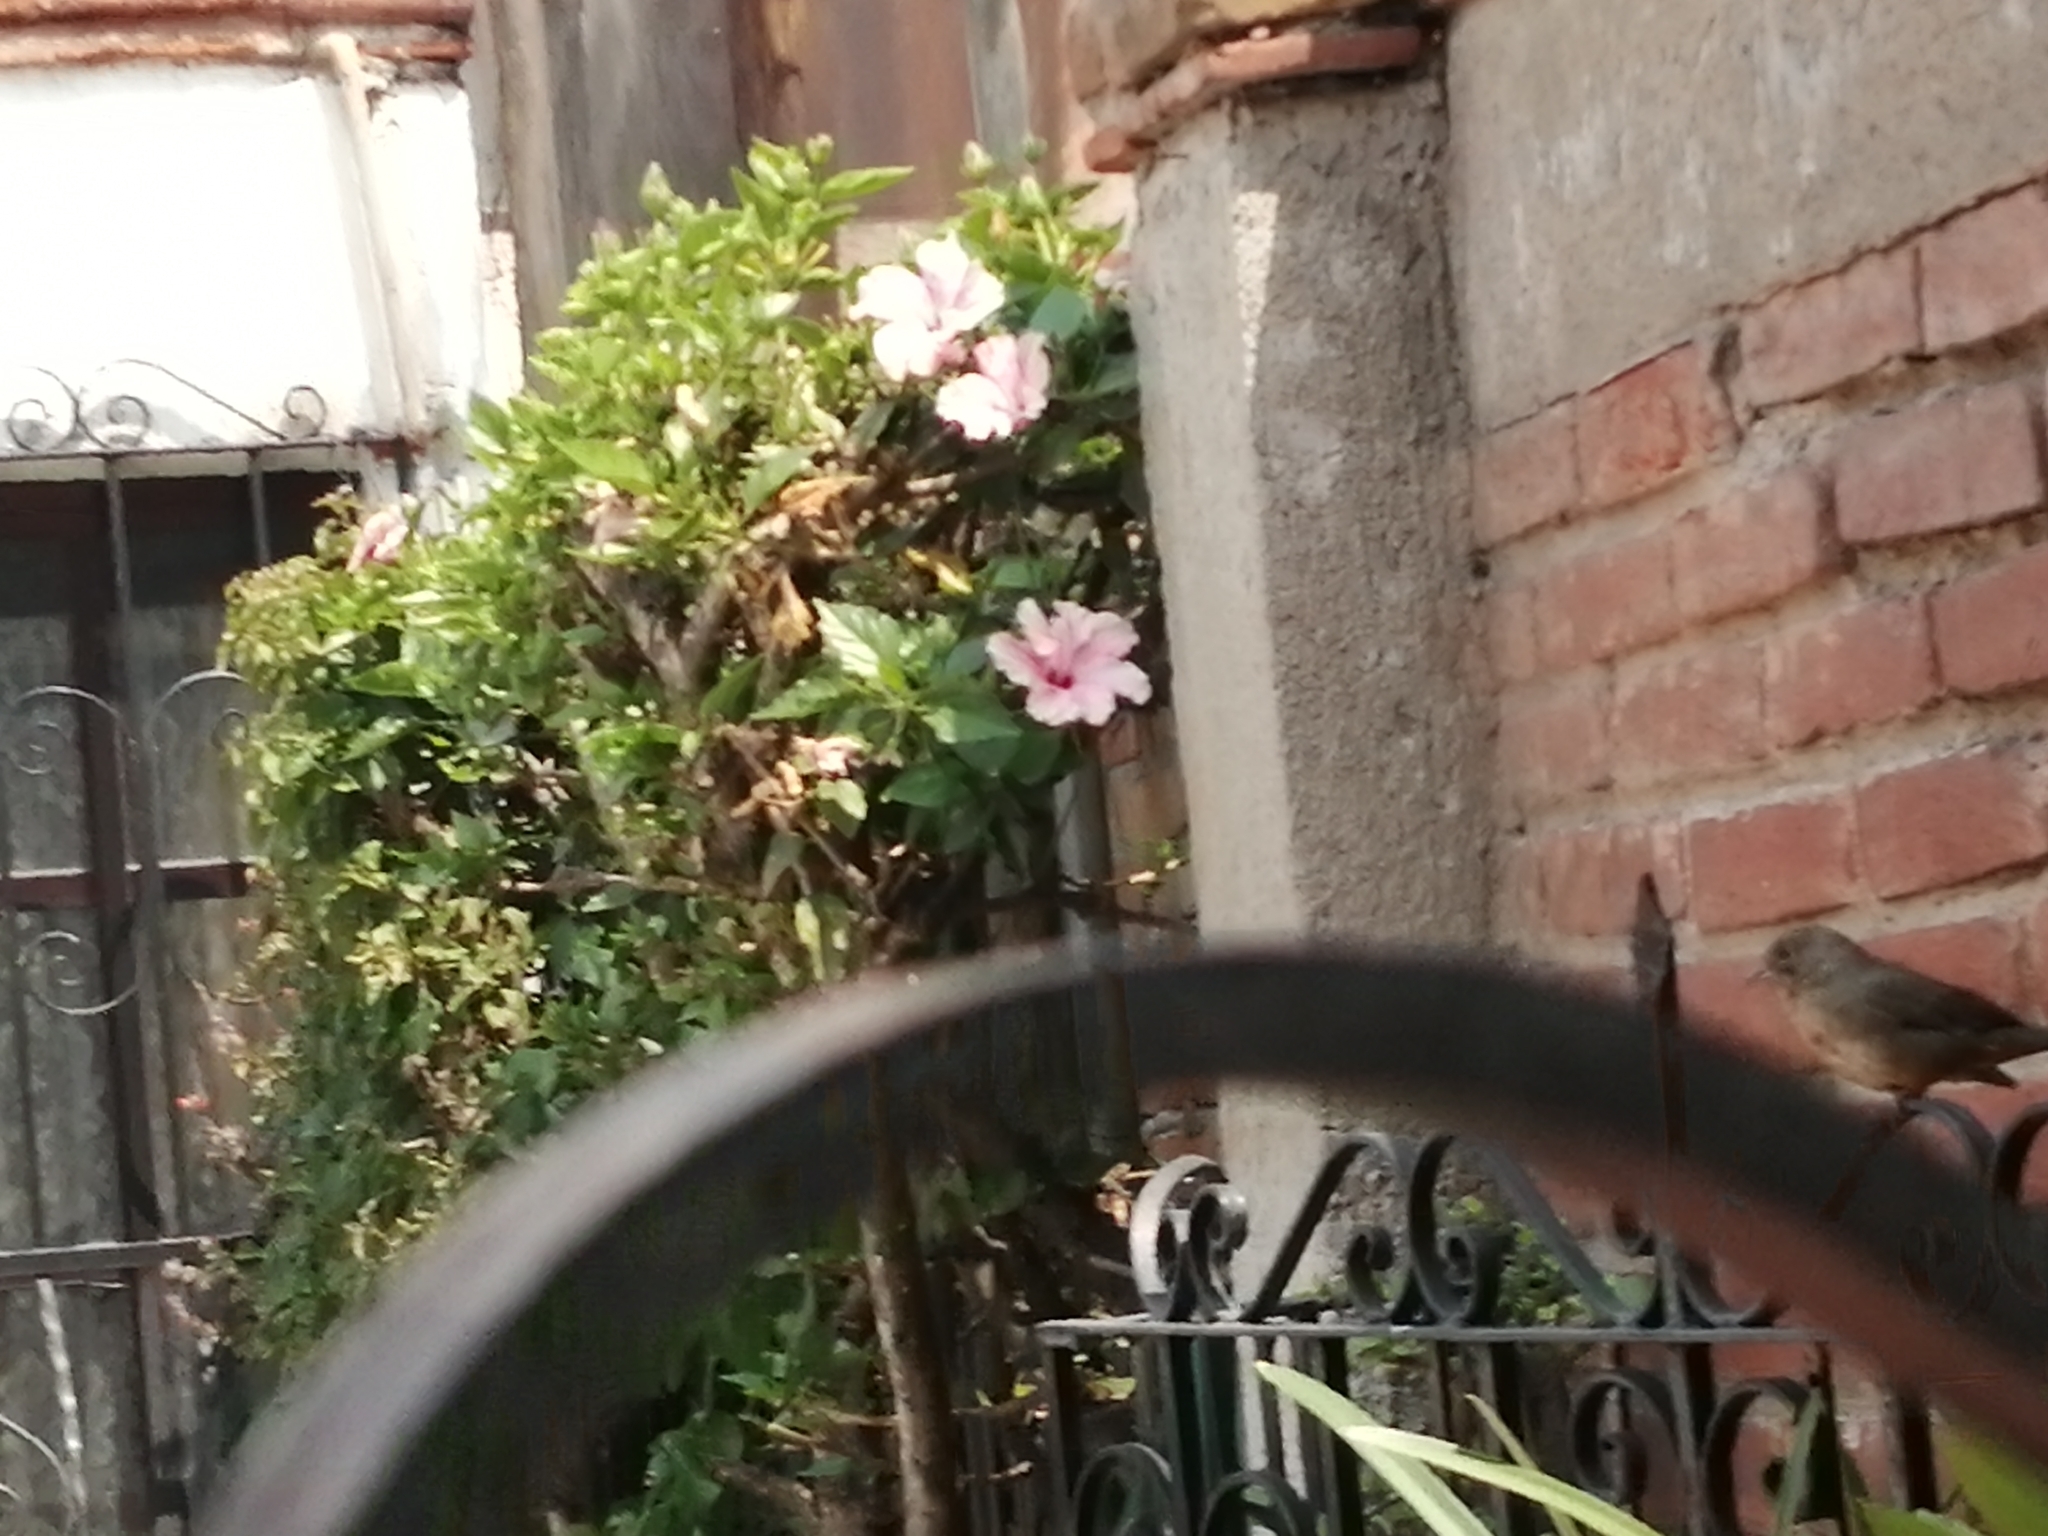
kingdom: Animalia
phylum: Chordata
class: Aves
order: Passeriformes
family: Passerellidae
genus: Melozone
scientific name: Melozone fusca
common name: Canyon towhee
